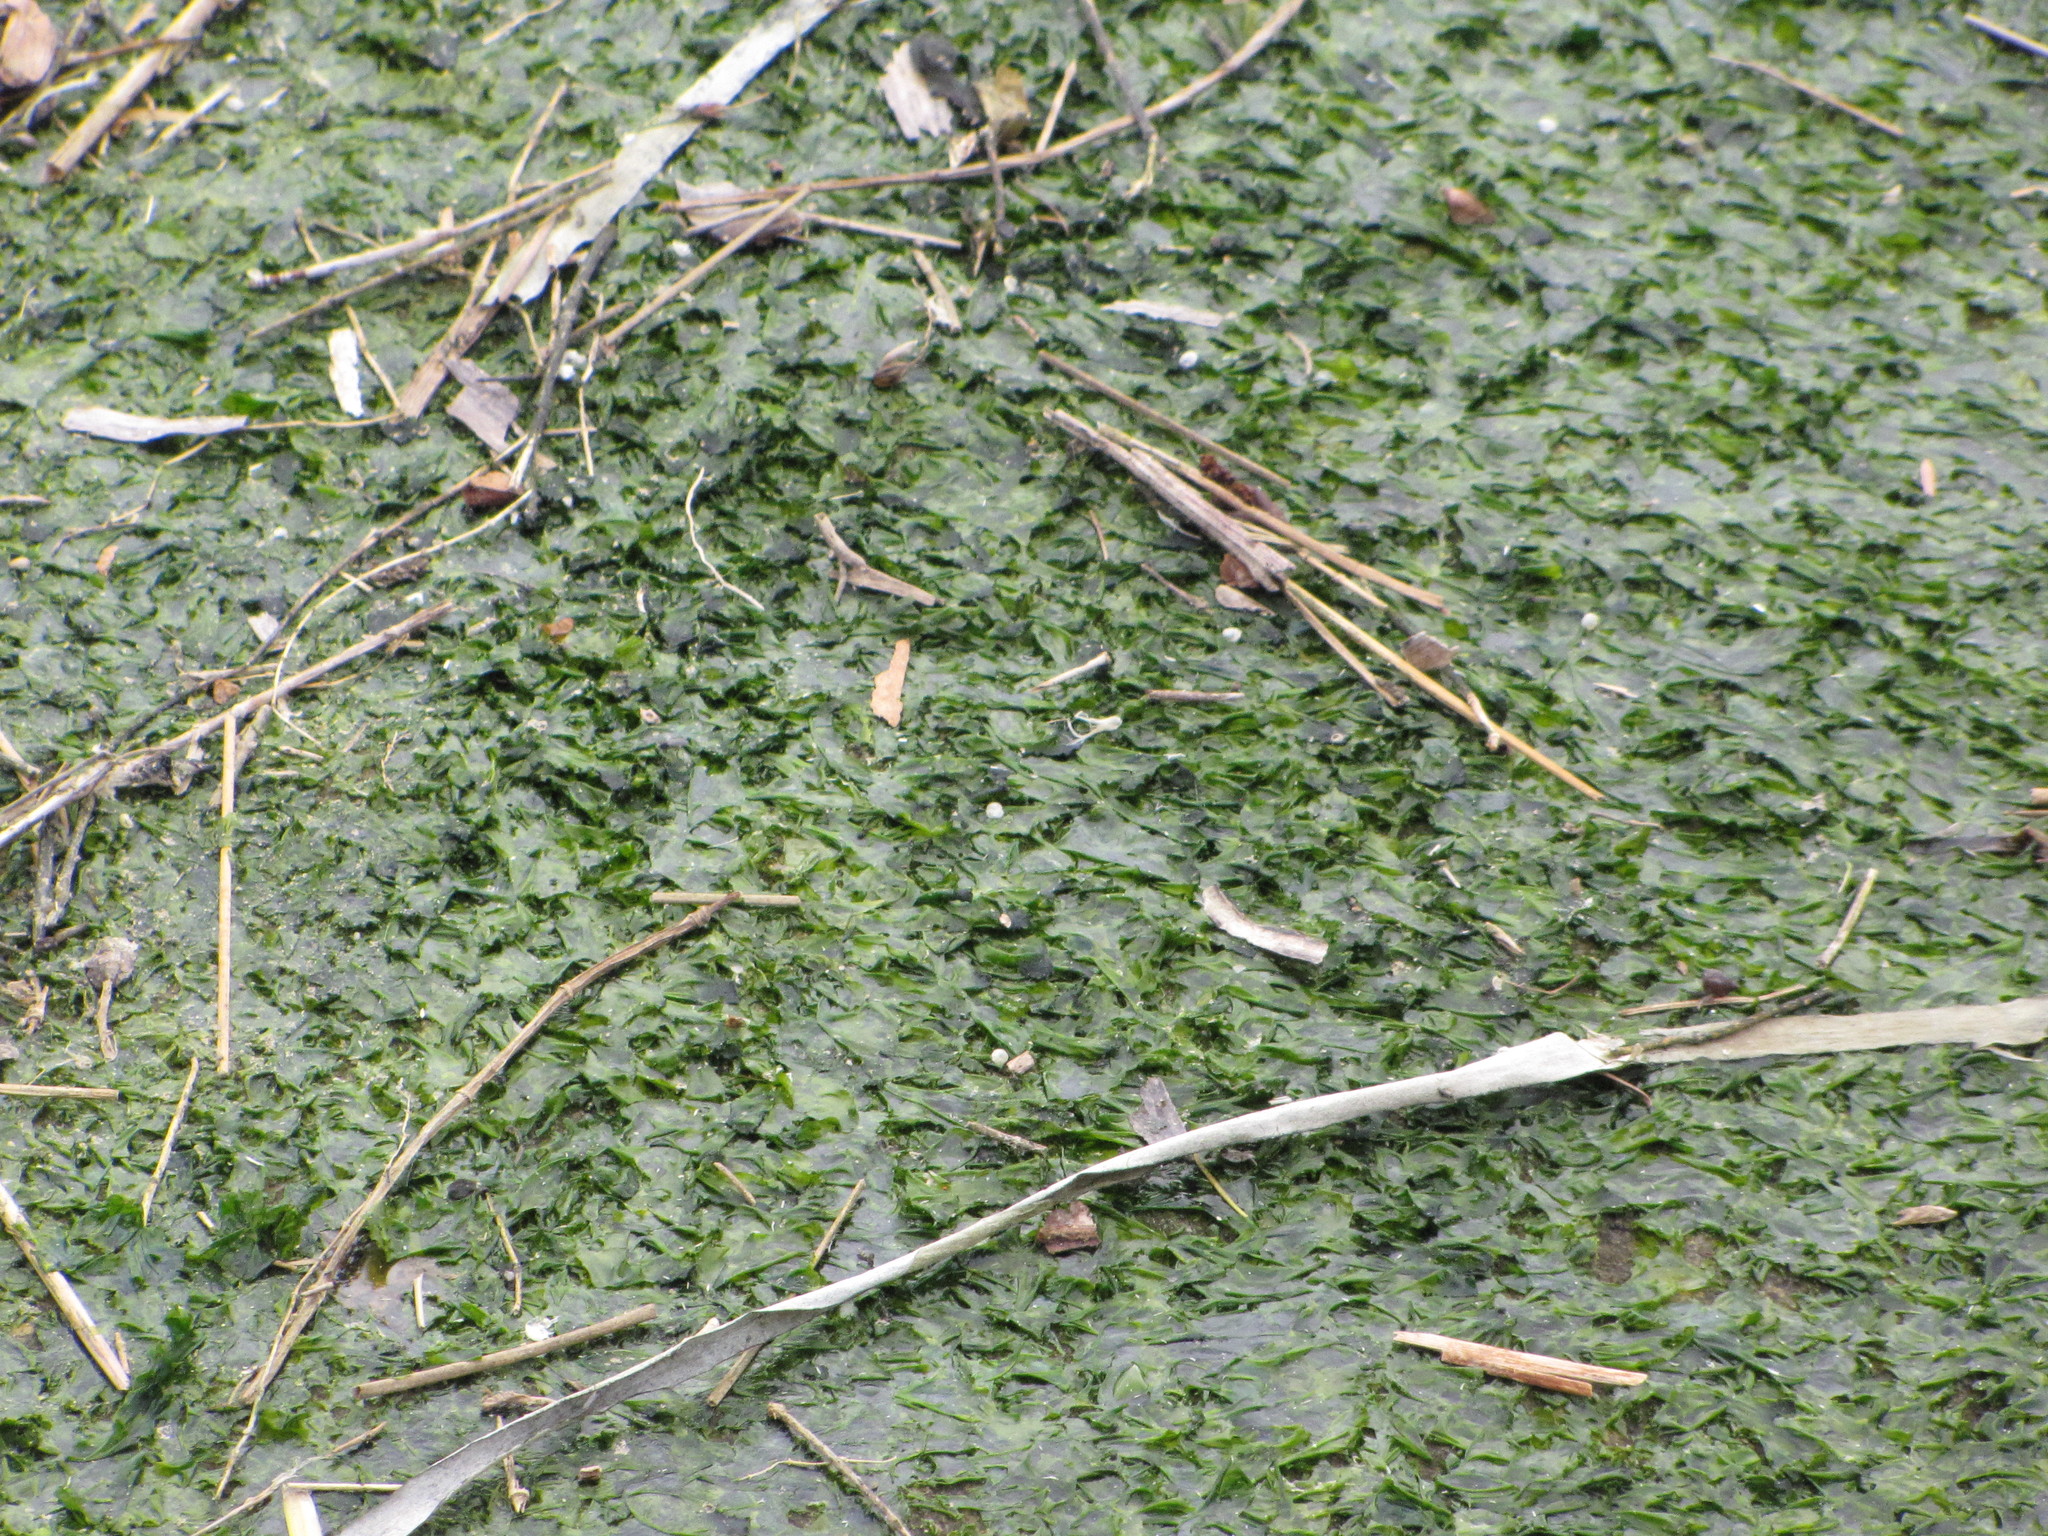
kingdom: Plantae
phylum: Chlorophyta
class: Ulvophyceae
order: Ulvales
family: Ulvaceae
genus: Ulva
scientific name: Ulva lactuca
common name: Sea lettuce
